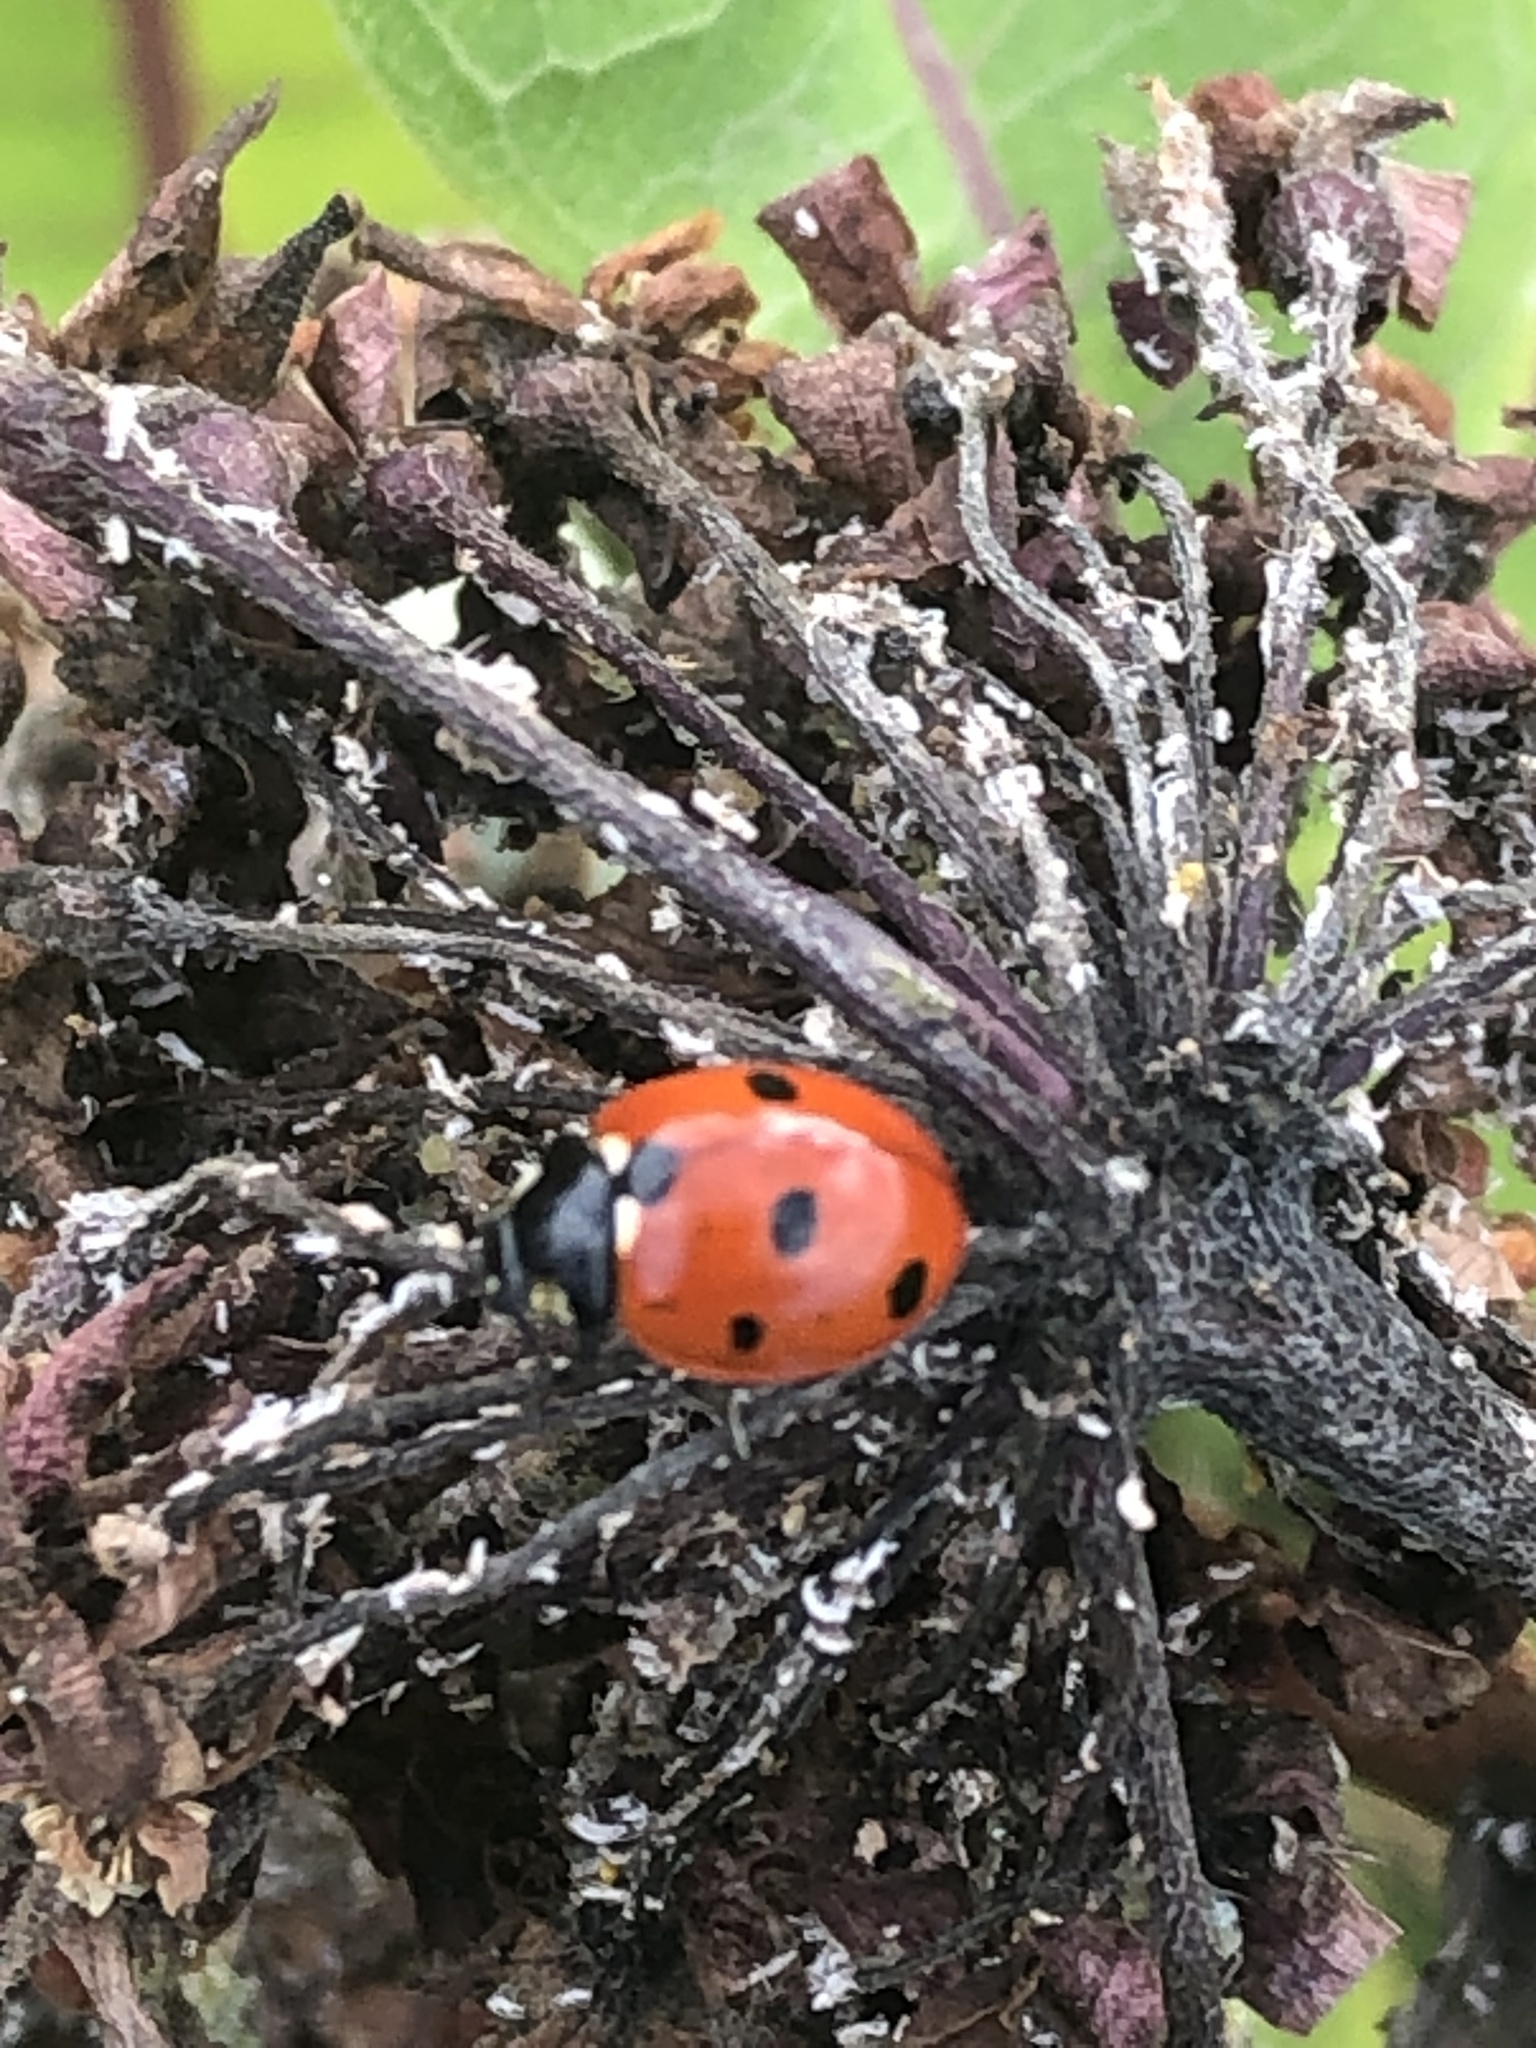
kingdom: Animalia
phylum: Arthropoda
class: Insecta
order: Coleoptera
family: Coccinellidae
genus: Coccinella
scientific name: Coccinella septempunctata
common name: Sevenspotted lady beetle
